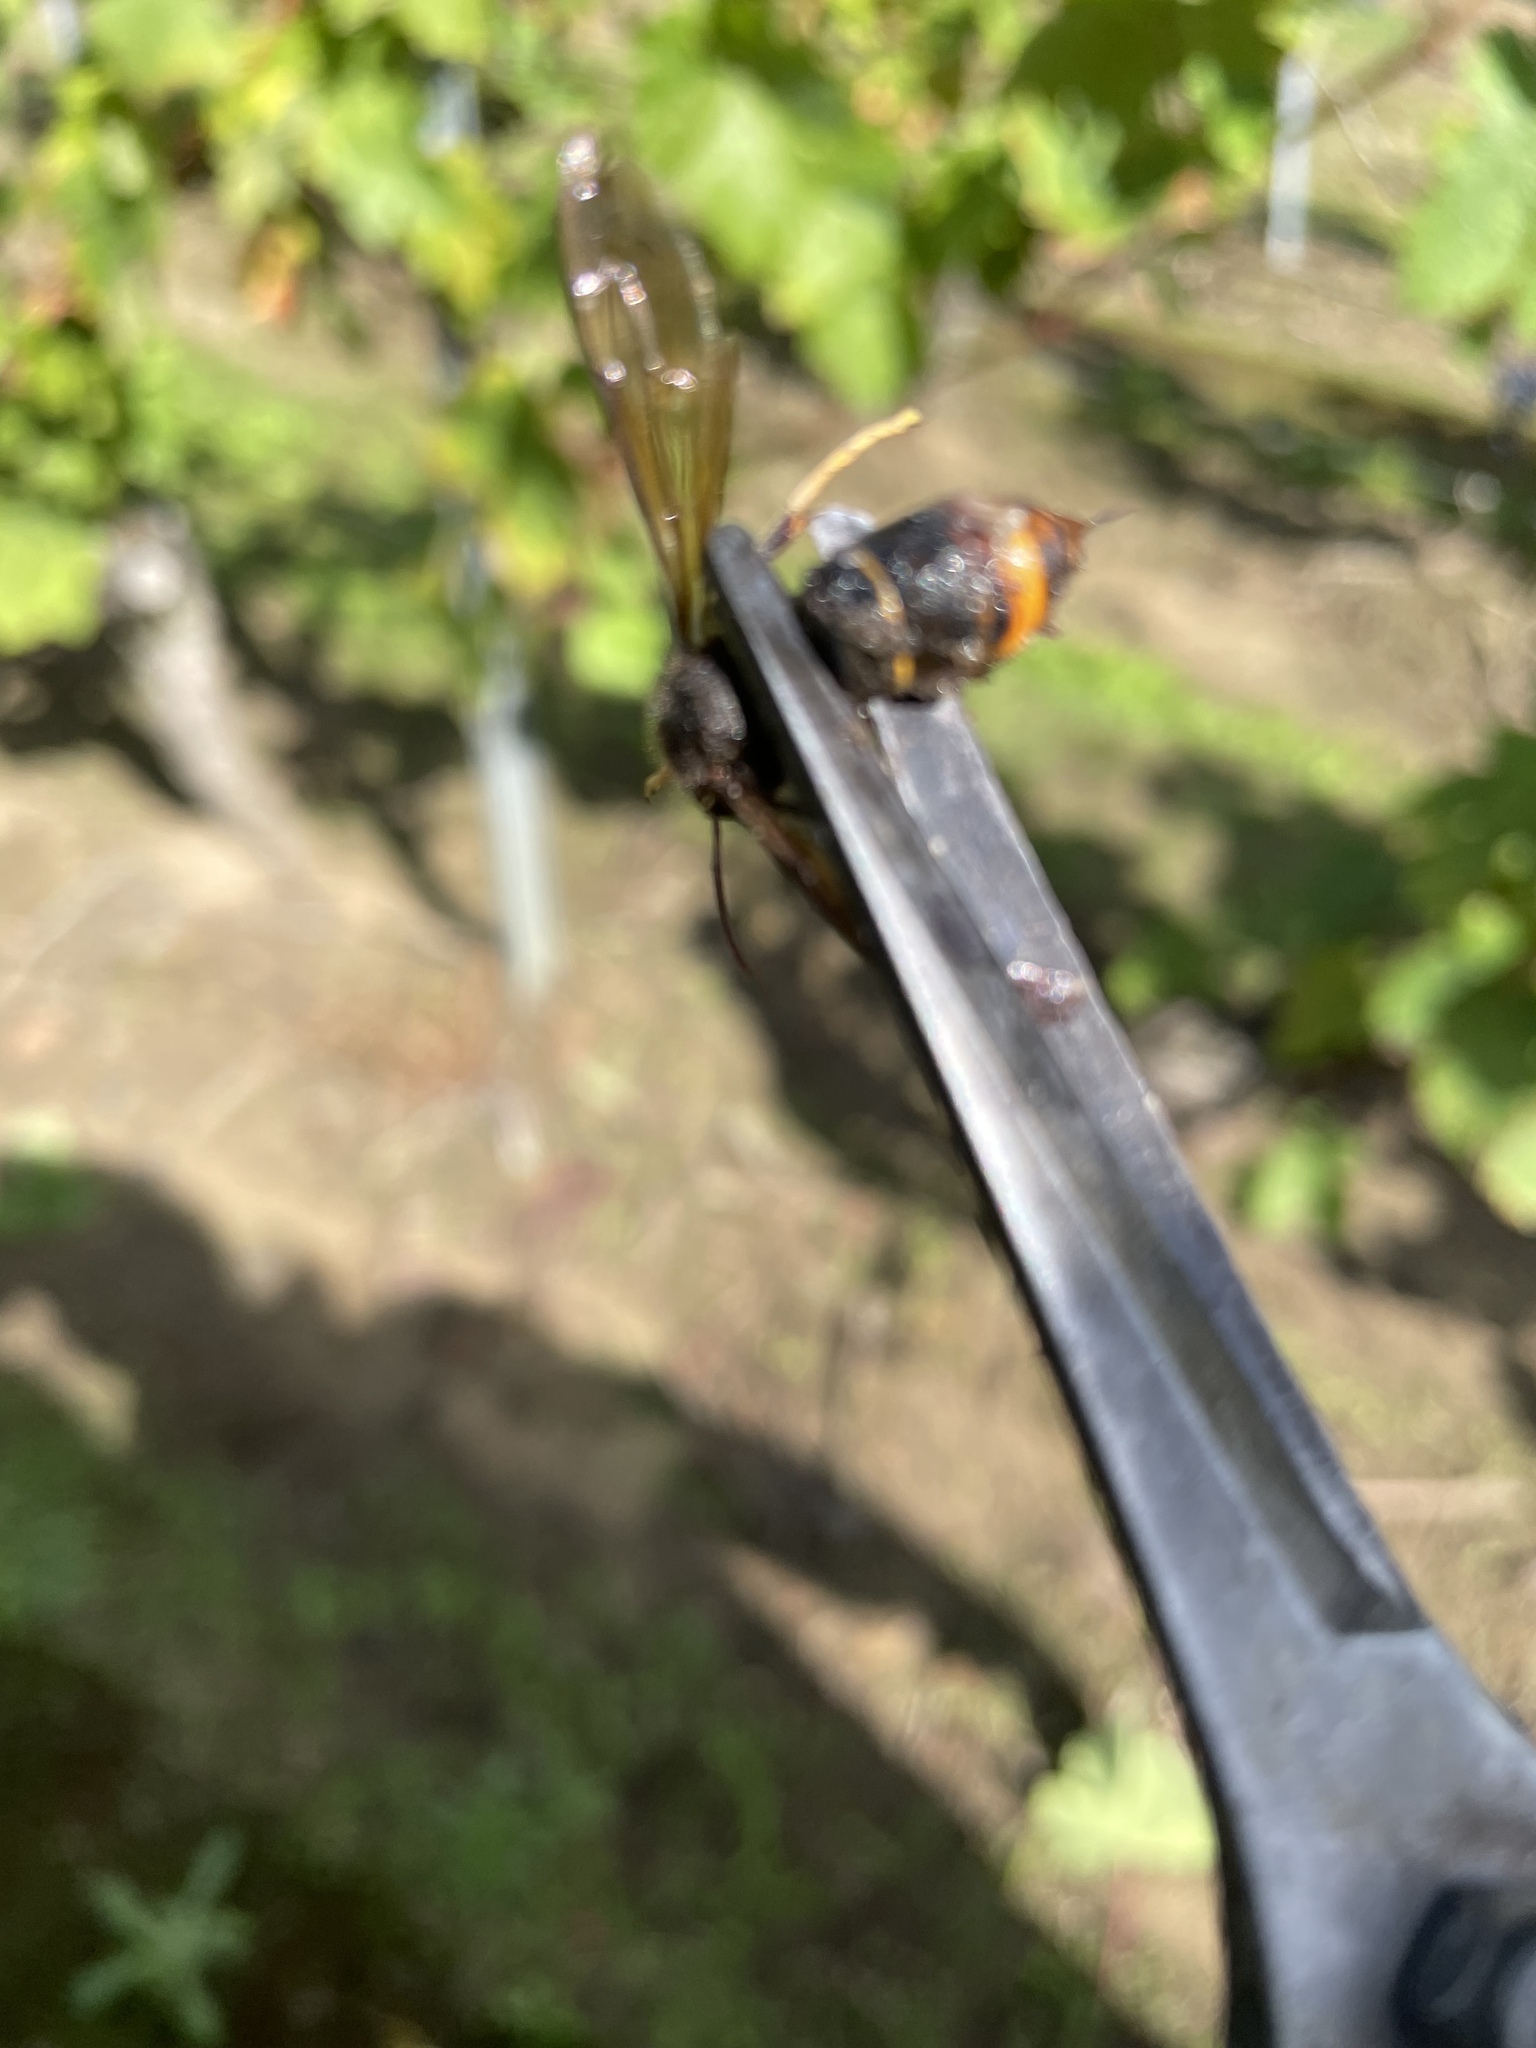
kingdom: Animalia
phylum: Arthropoda
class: Insecta
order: Hymenoptera
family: Vespidae
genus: Vespa
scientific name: Vespa velutina
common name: Asian hornet
